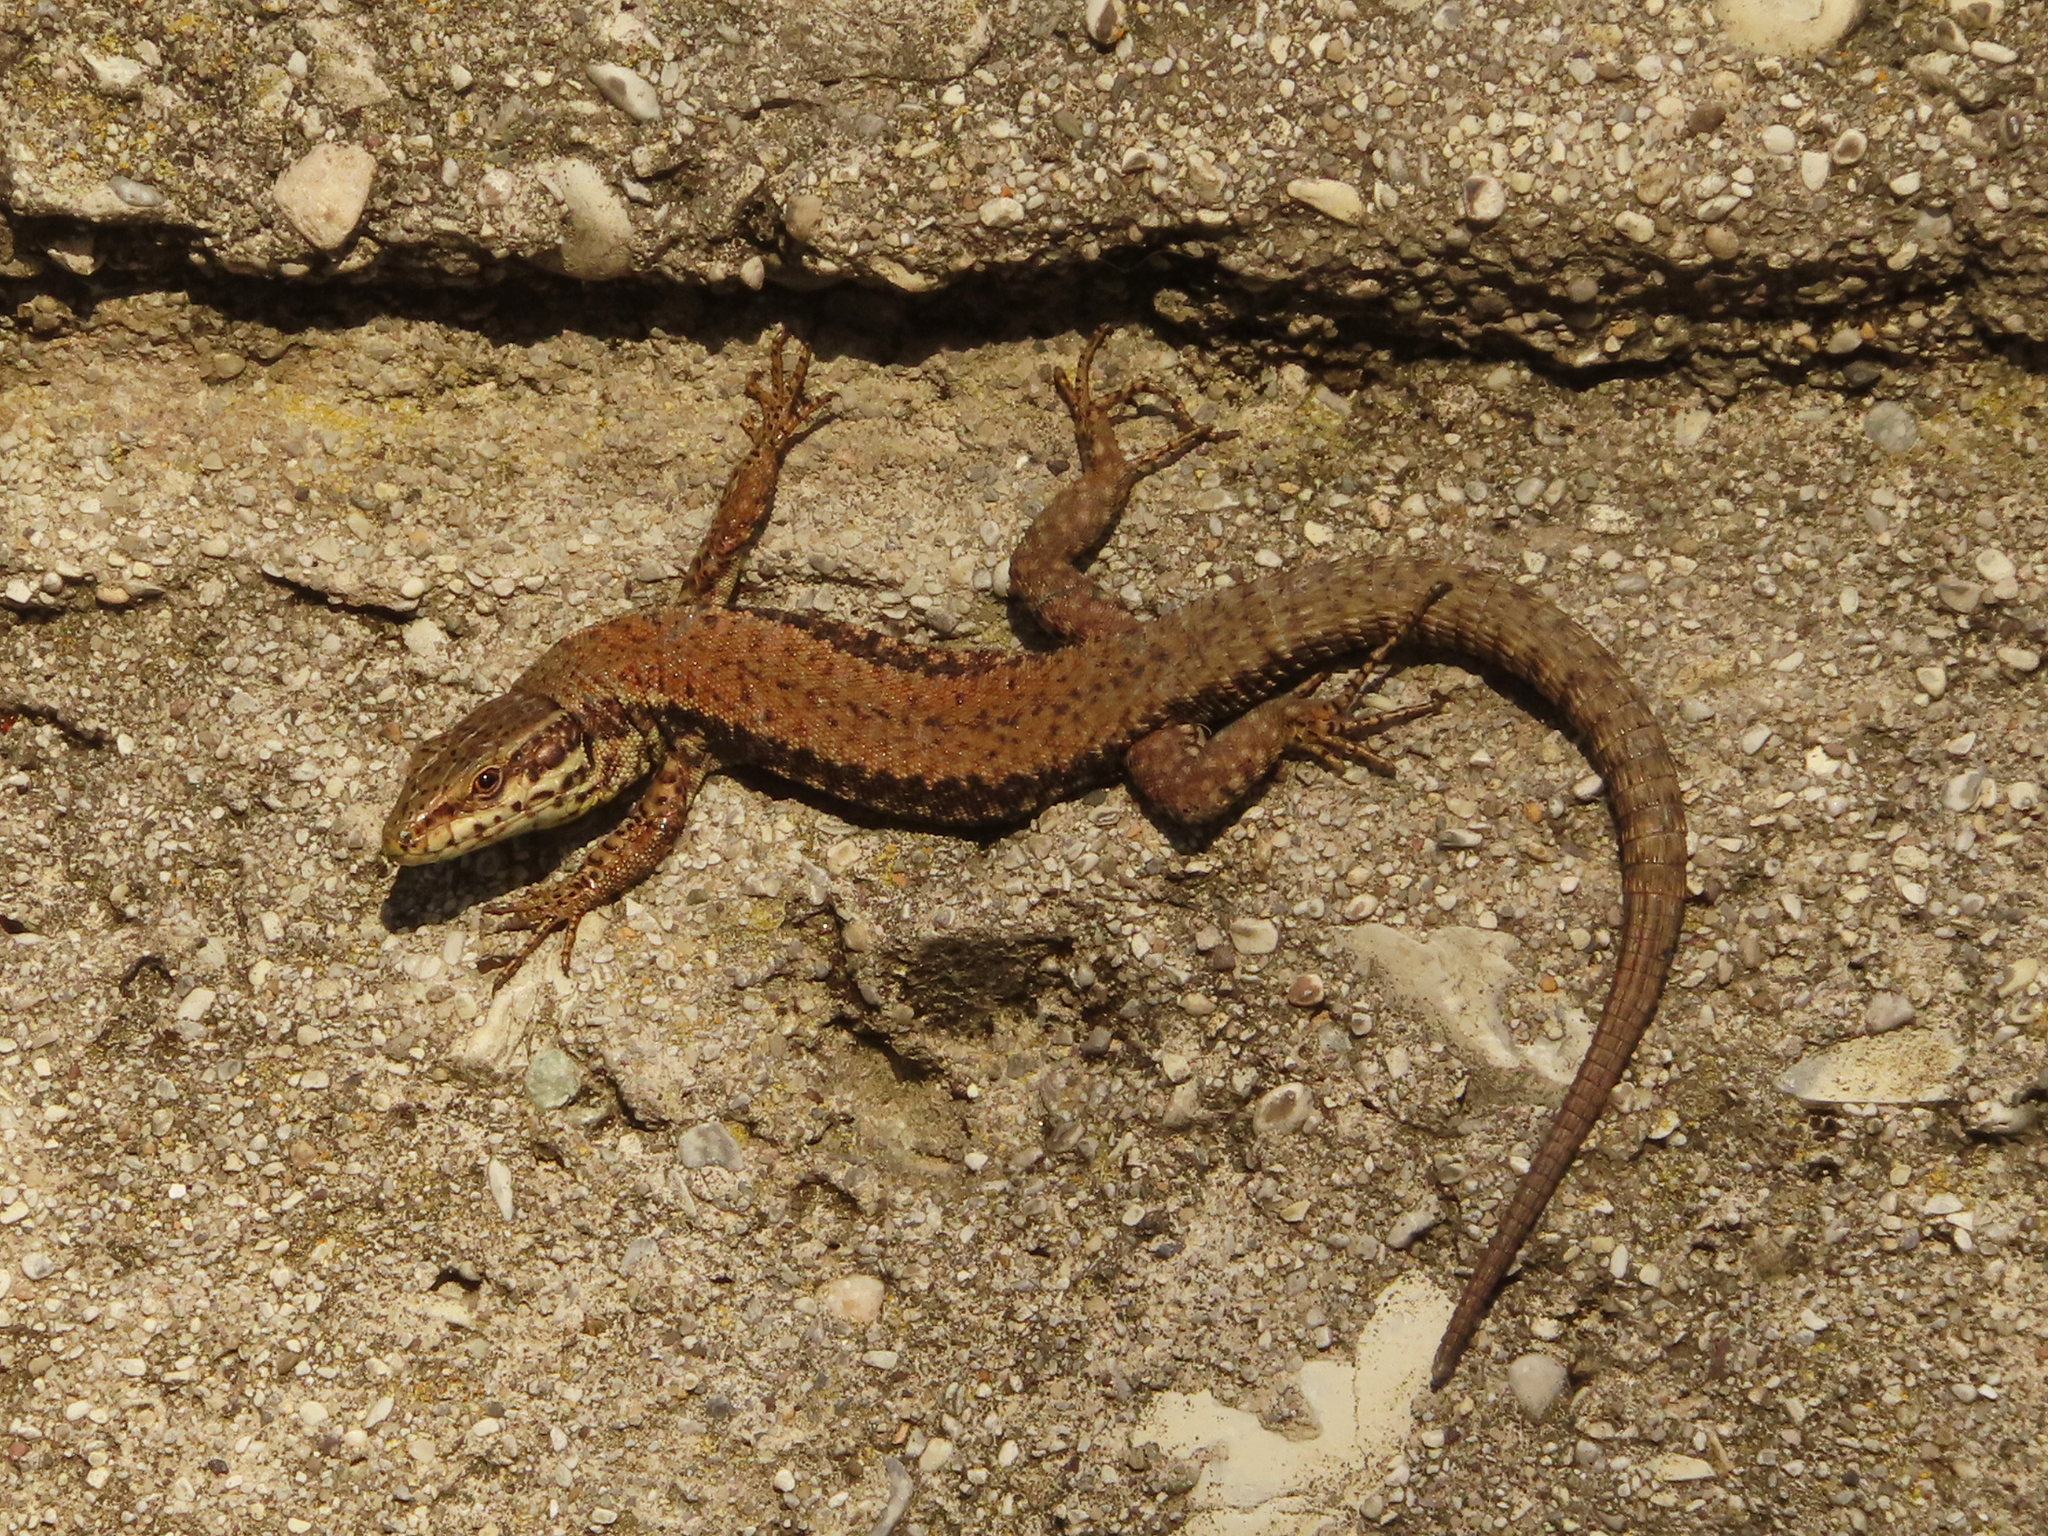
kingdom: Animalia
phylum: Chordata
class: Squamata
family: Lacertidae
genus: Podarcis
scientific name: Podarcis muralis
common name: Common wall lizard
